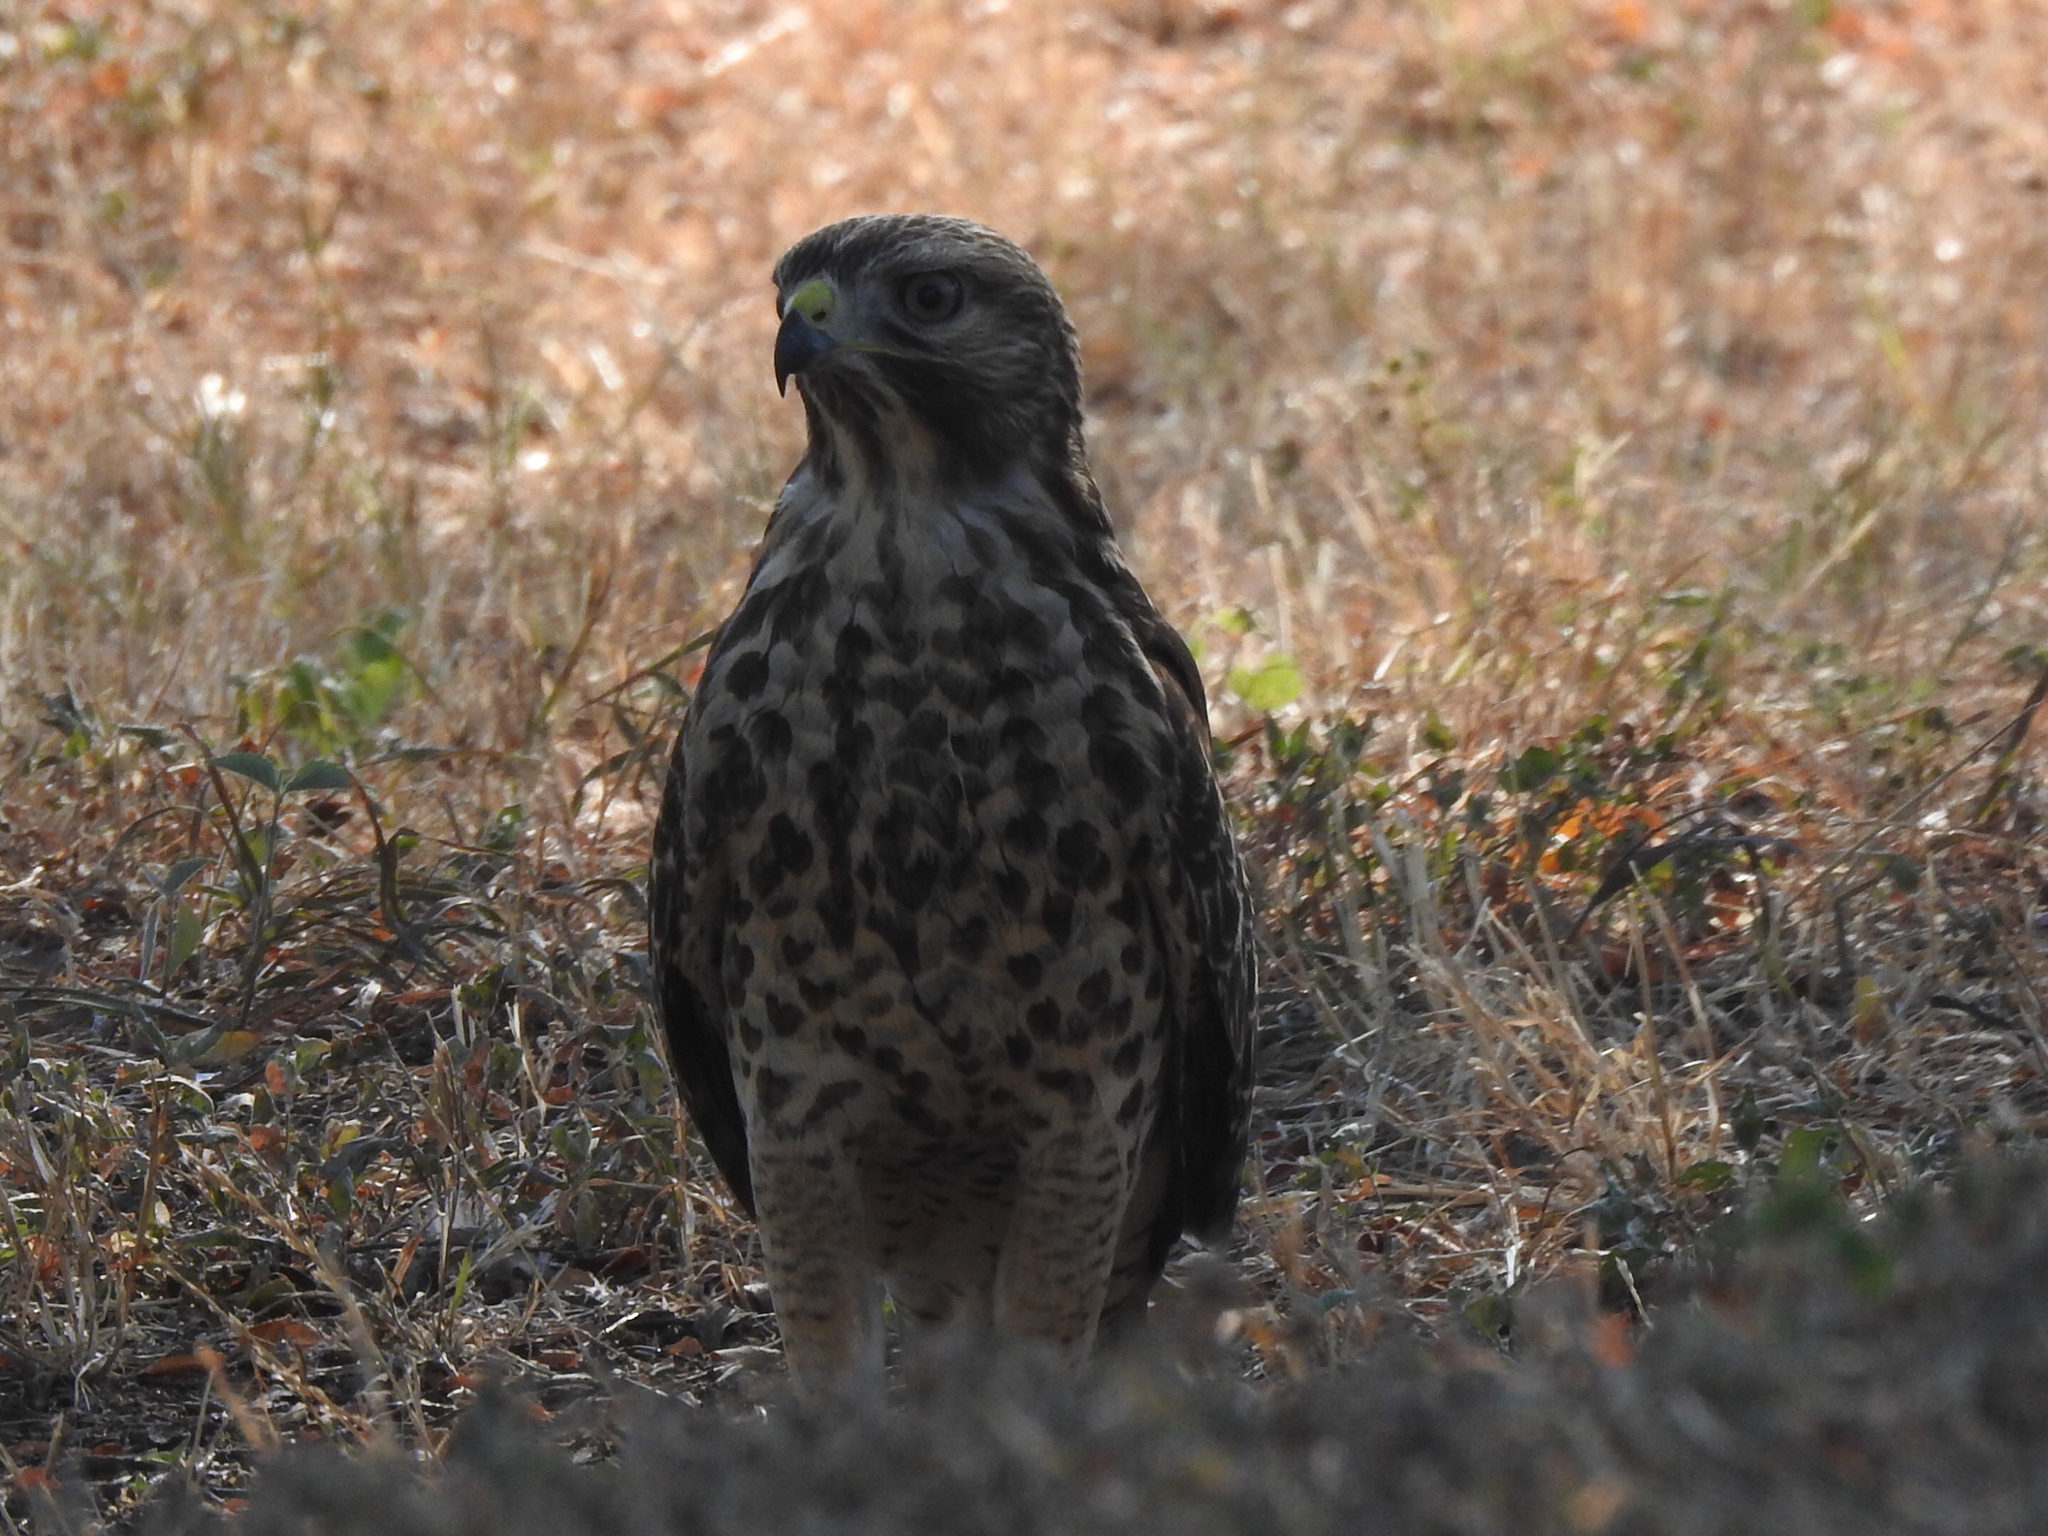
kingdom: Animalia
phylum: Chordata
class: Aves
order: Accipitriformes
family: Accipitridae
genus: Buteo
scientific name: Buteo lineatus
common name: Red-shouldered hawk
